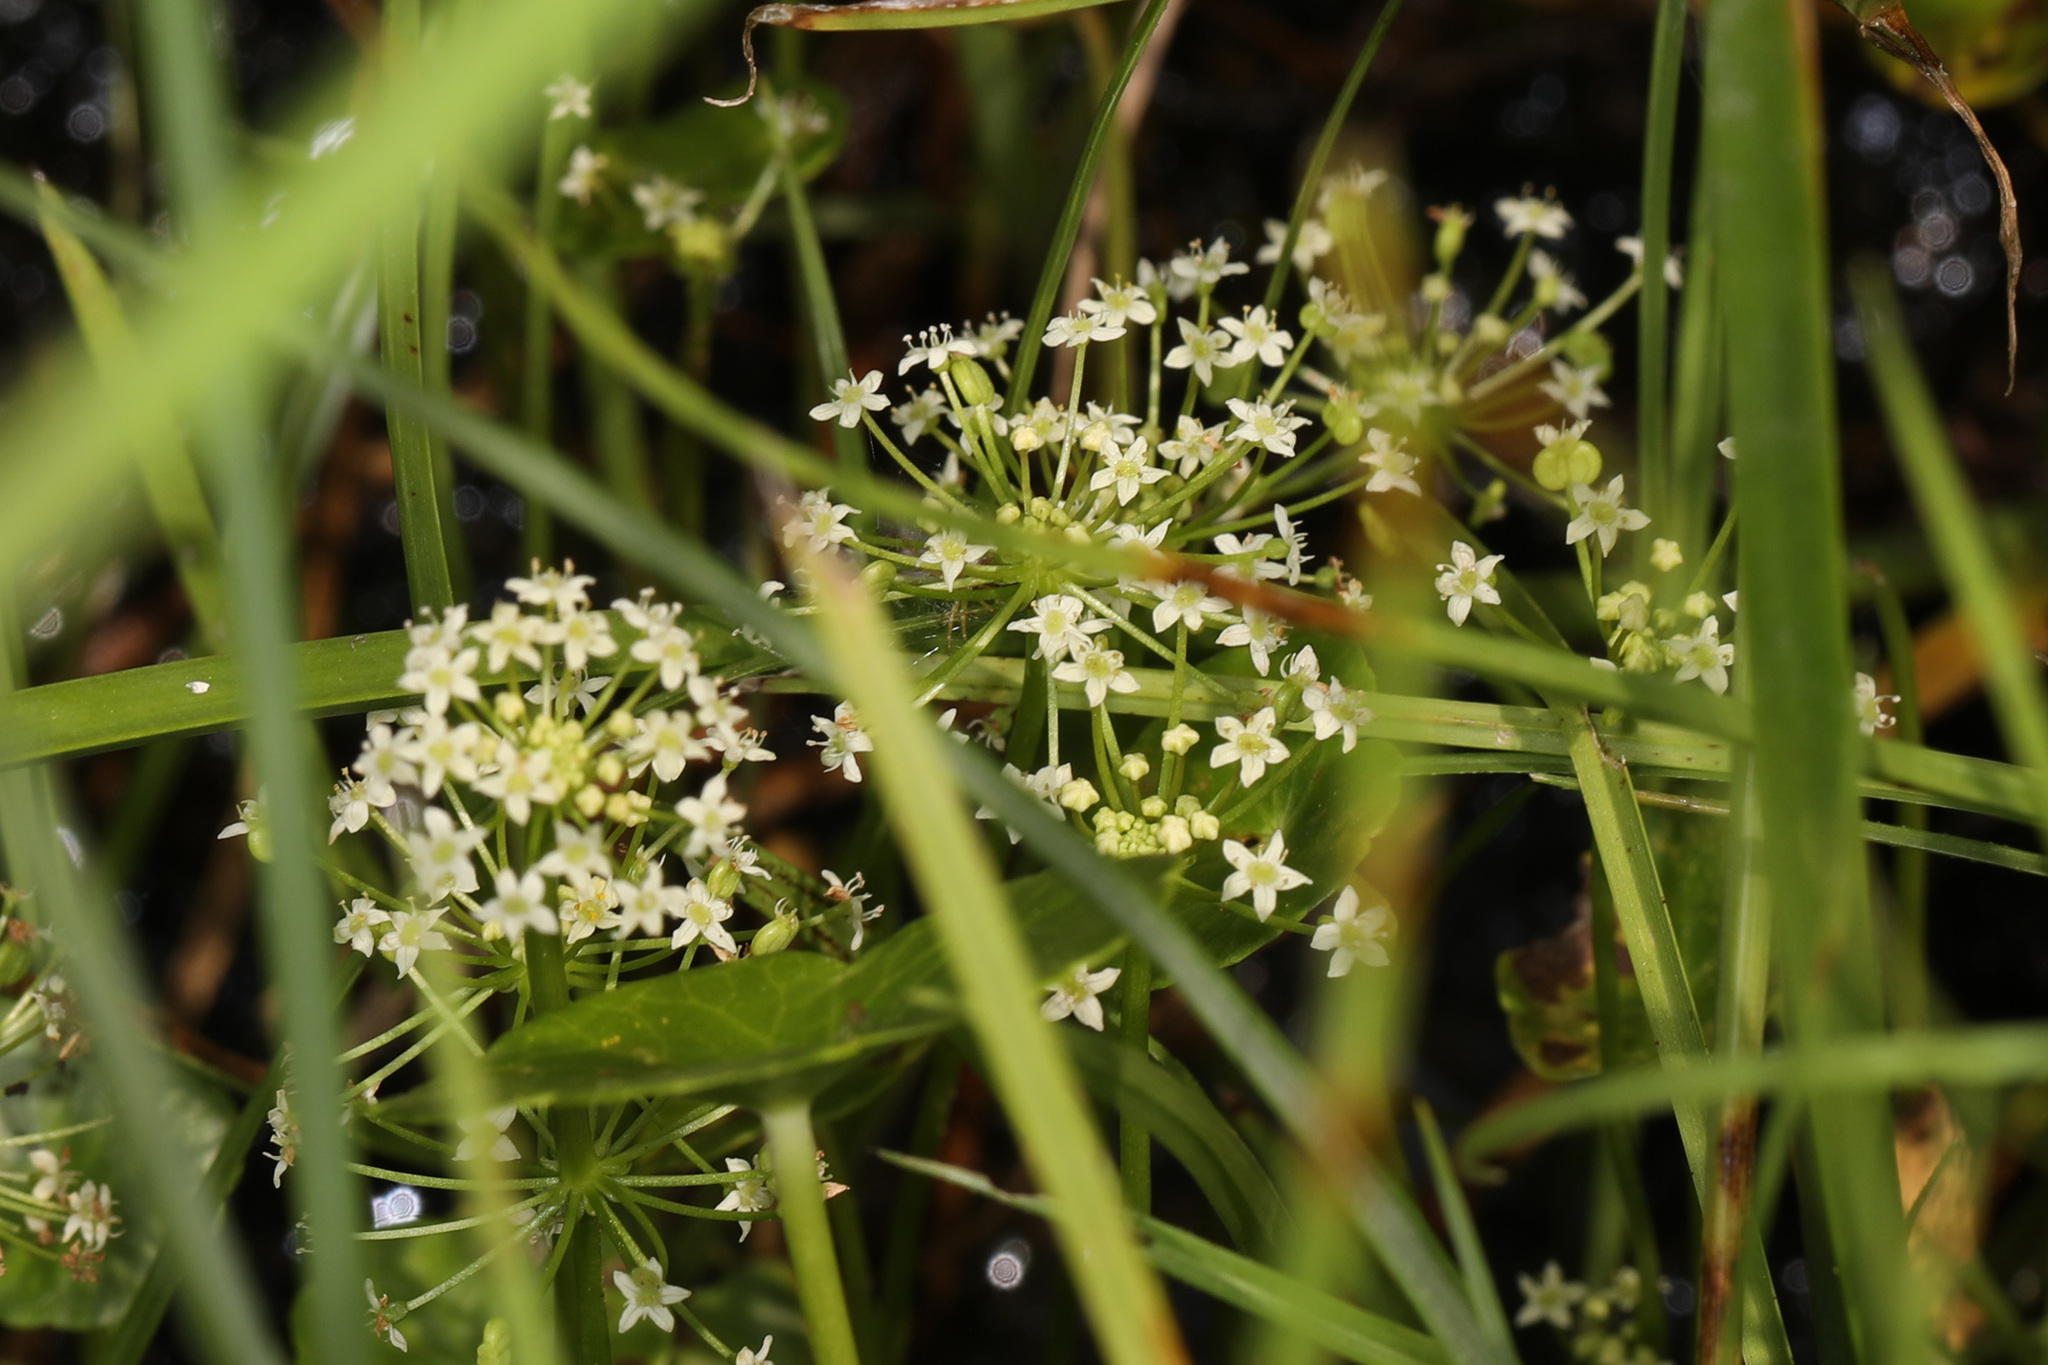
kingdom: Plantae
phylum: Tracheophyta
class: Magnoliopsida
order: Apiales
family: Araliaceae
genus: Hydrocotyle
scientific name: Hydrocotyle umbellata
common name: Water pennywort
